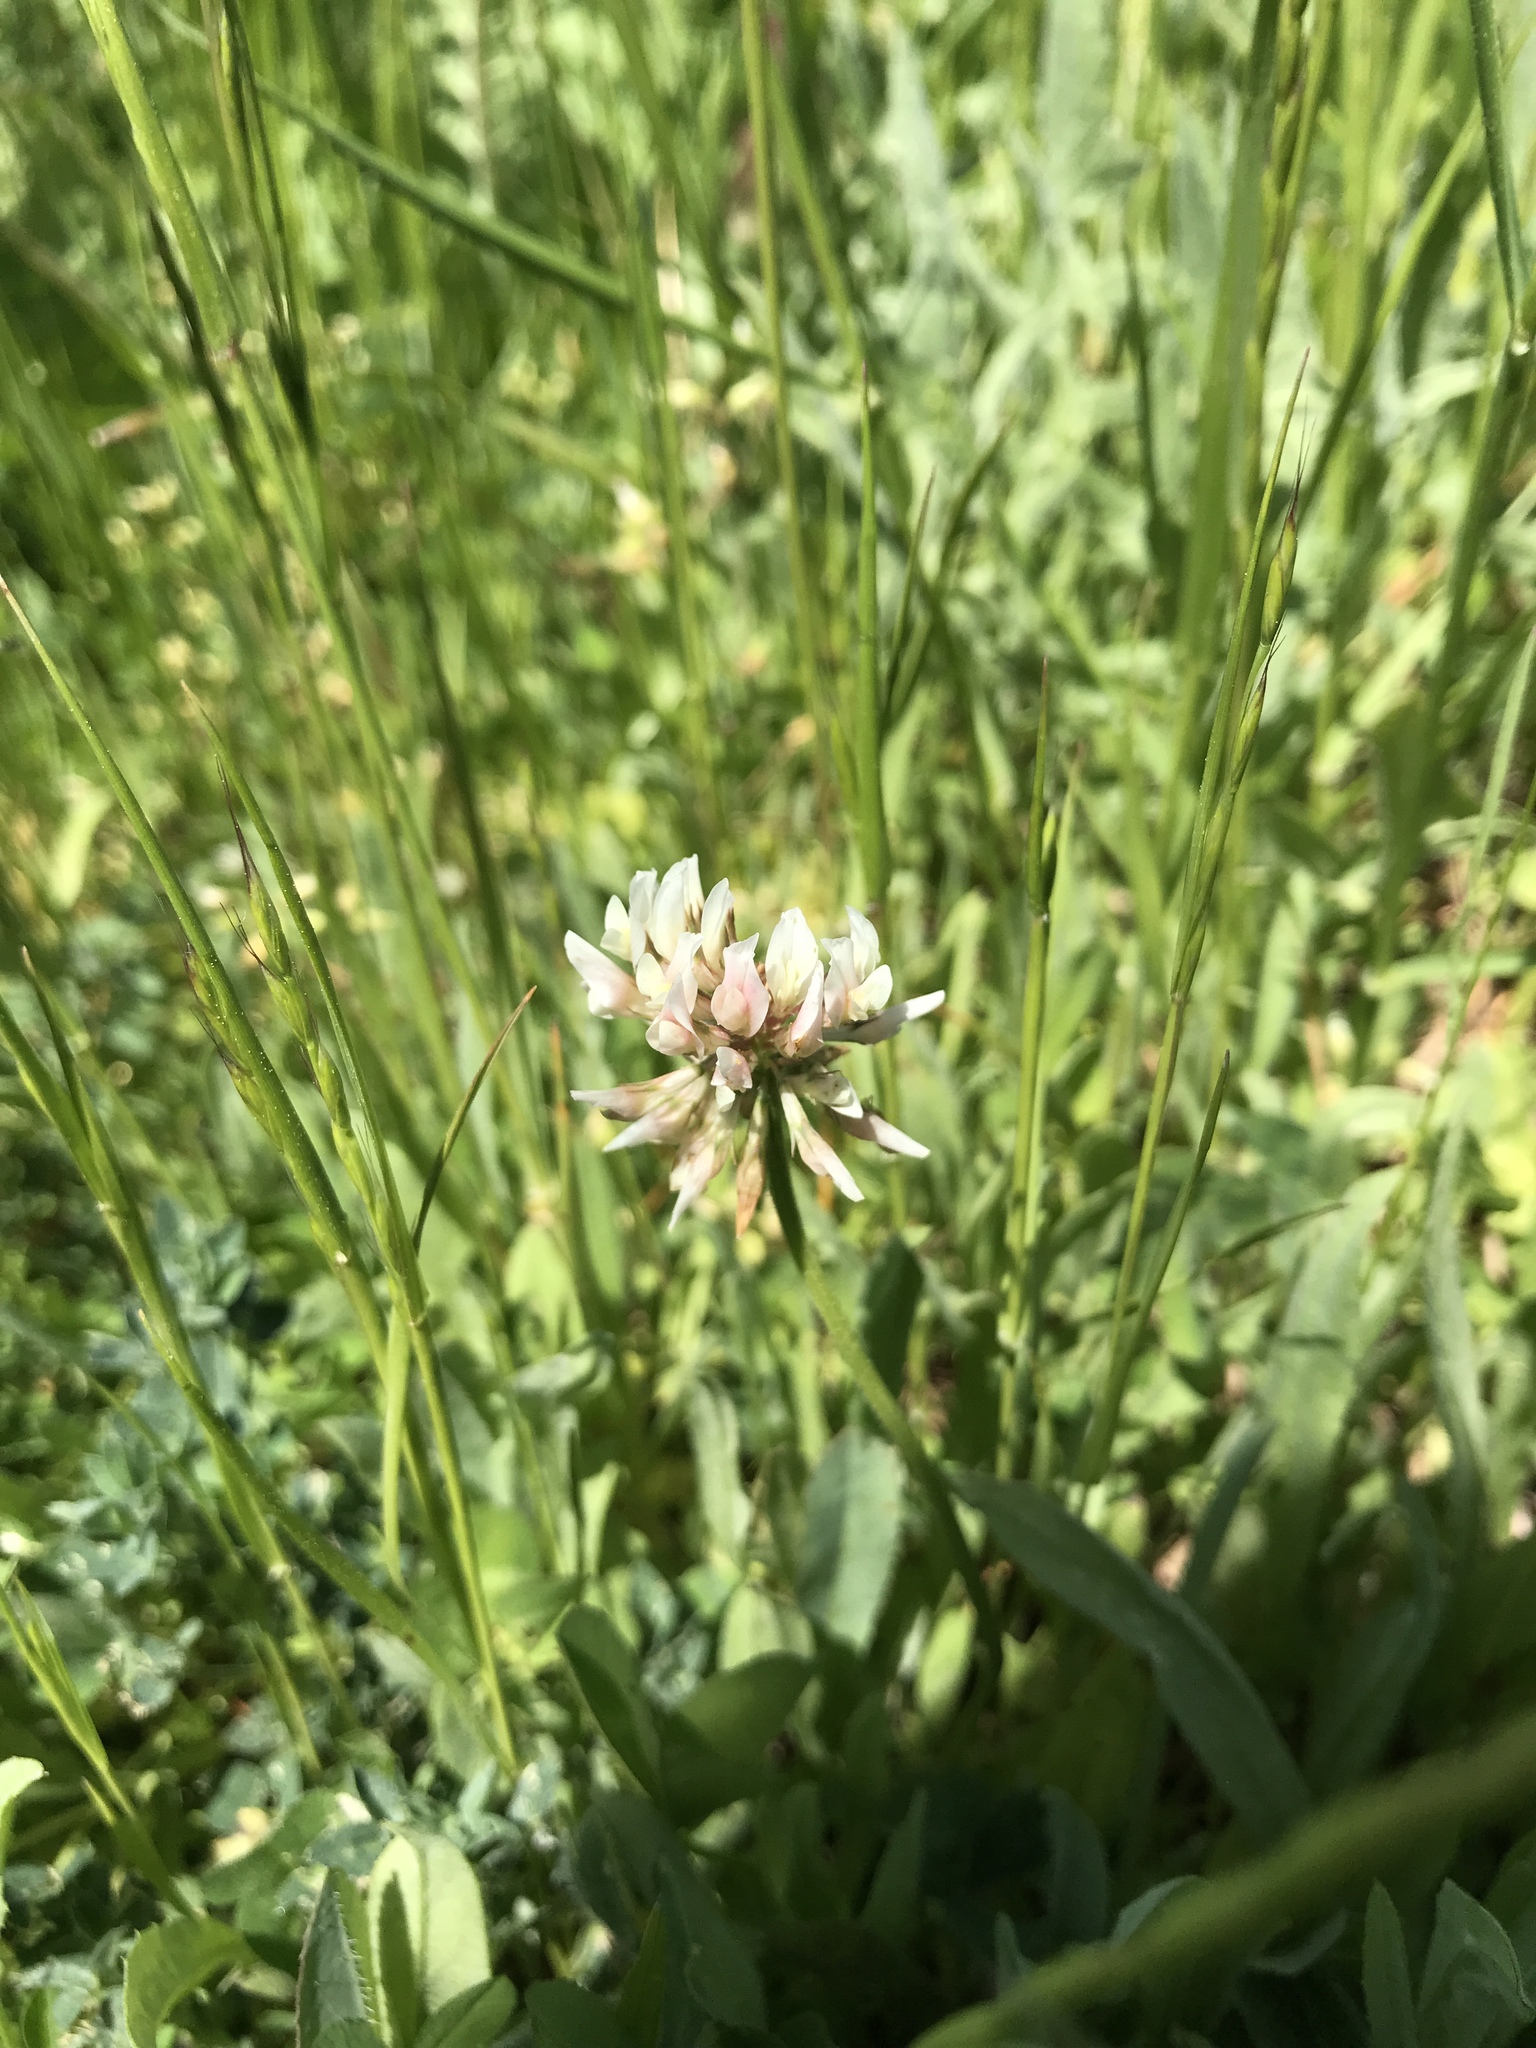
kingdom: Plantae
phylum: Tracheophyta
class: Magnoliopsida
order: Fabales
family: Fabaceae
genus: Trifolium
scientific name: Trifolium repens
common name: White clover
